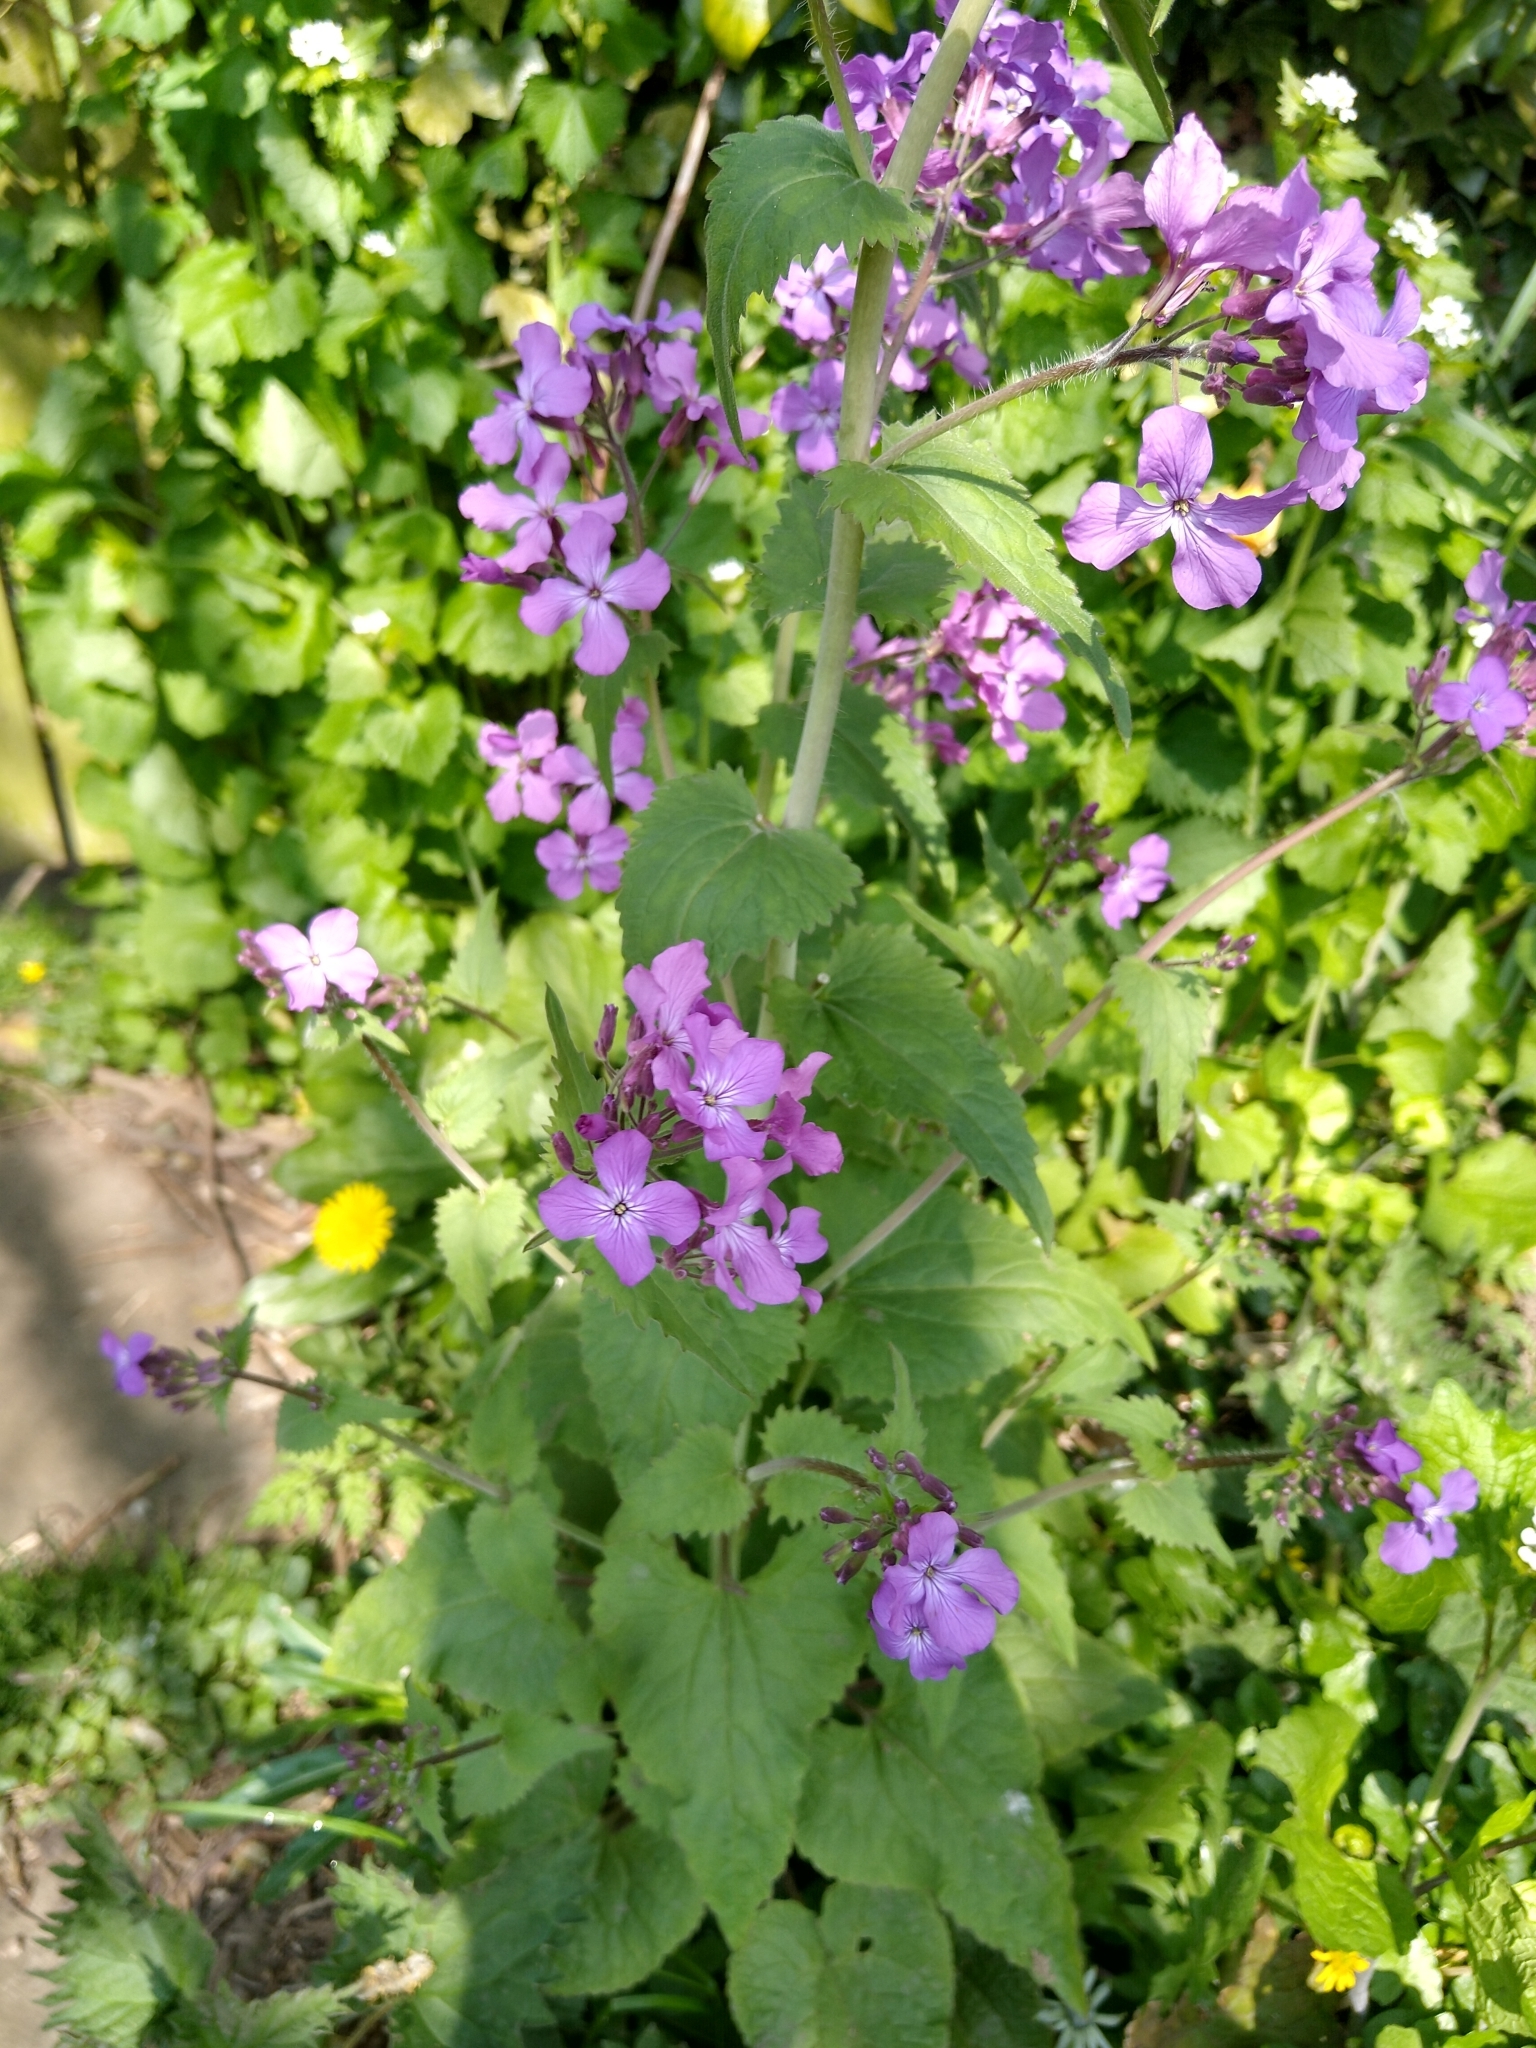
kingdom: Plantae
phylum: Tracheophyta
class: Magnoliopsida
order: Brassicales
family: Brassicaceae
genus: Lunaria
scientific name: Lunaria annua
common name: Honesty
